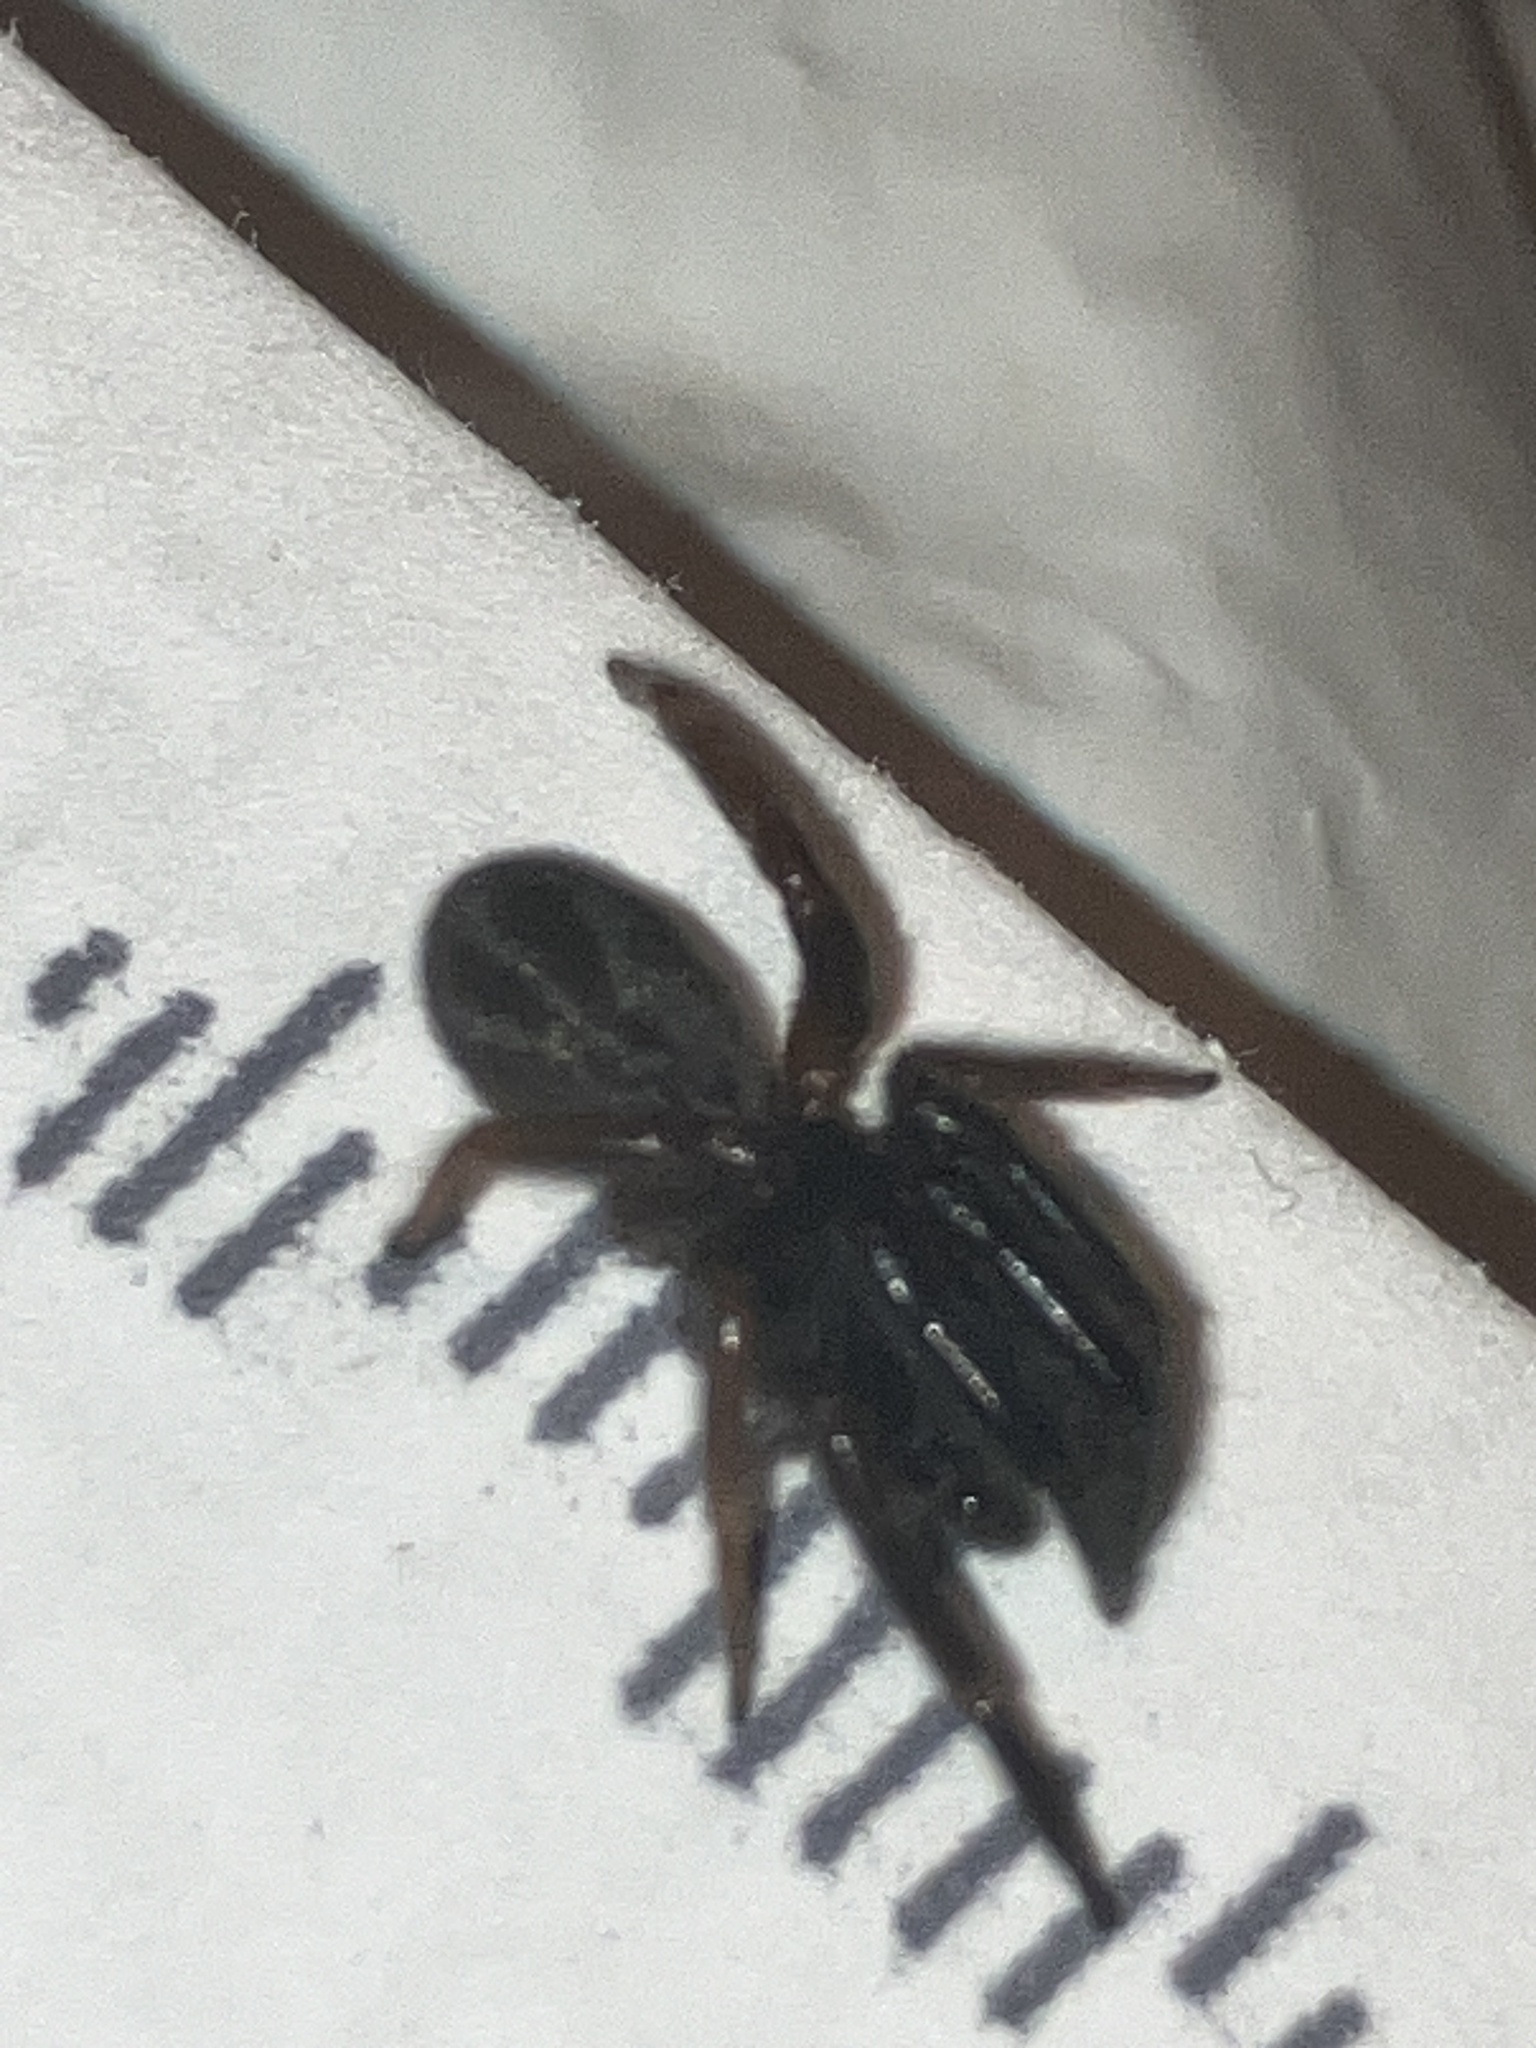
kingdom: Animalia
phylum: Arthropoda
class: Arachnida
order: Araneae
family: Segestriidae
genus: Ariadna
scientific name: Ariadna bicolor
